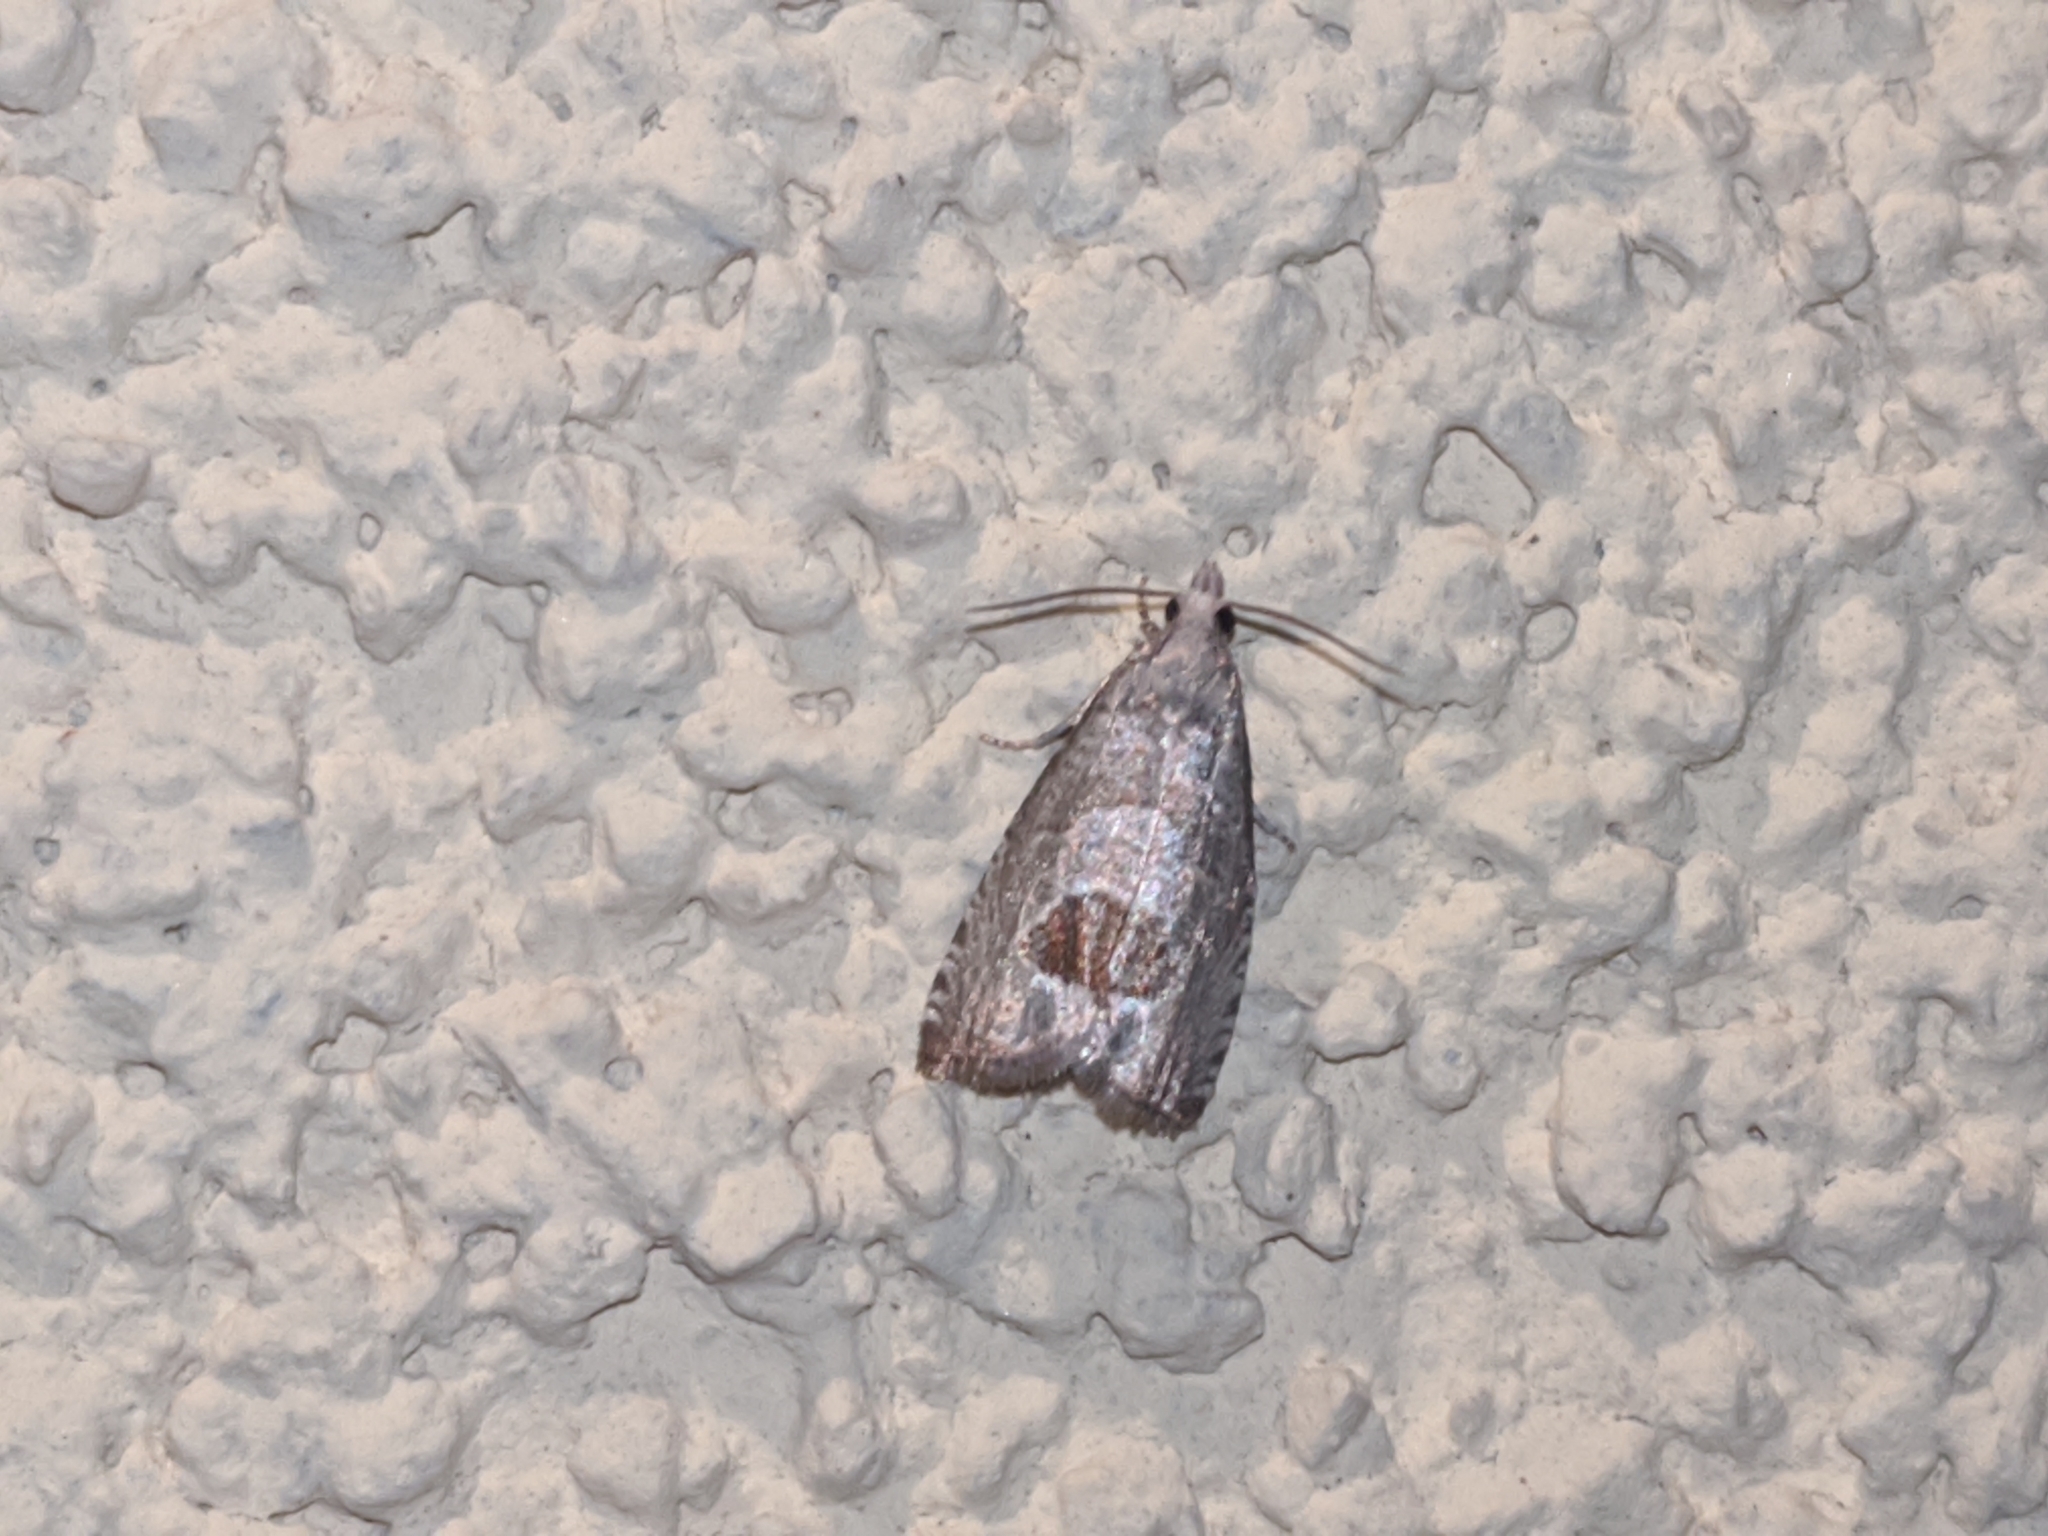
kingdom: Animalia
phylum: Arthropoda
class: Insecta
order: Lepidoptera
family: Tortricidae
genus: Notocelia
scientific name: Notocelia uddmanniana
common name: Bramble shoot moth
